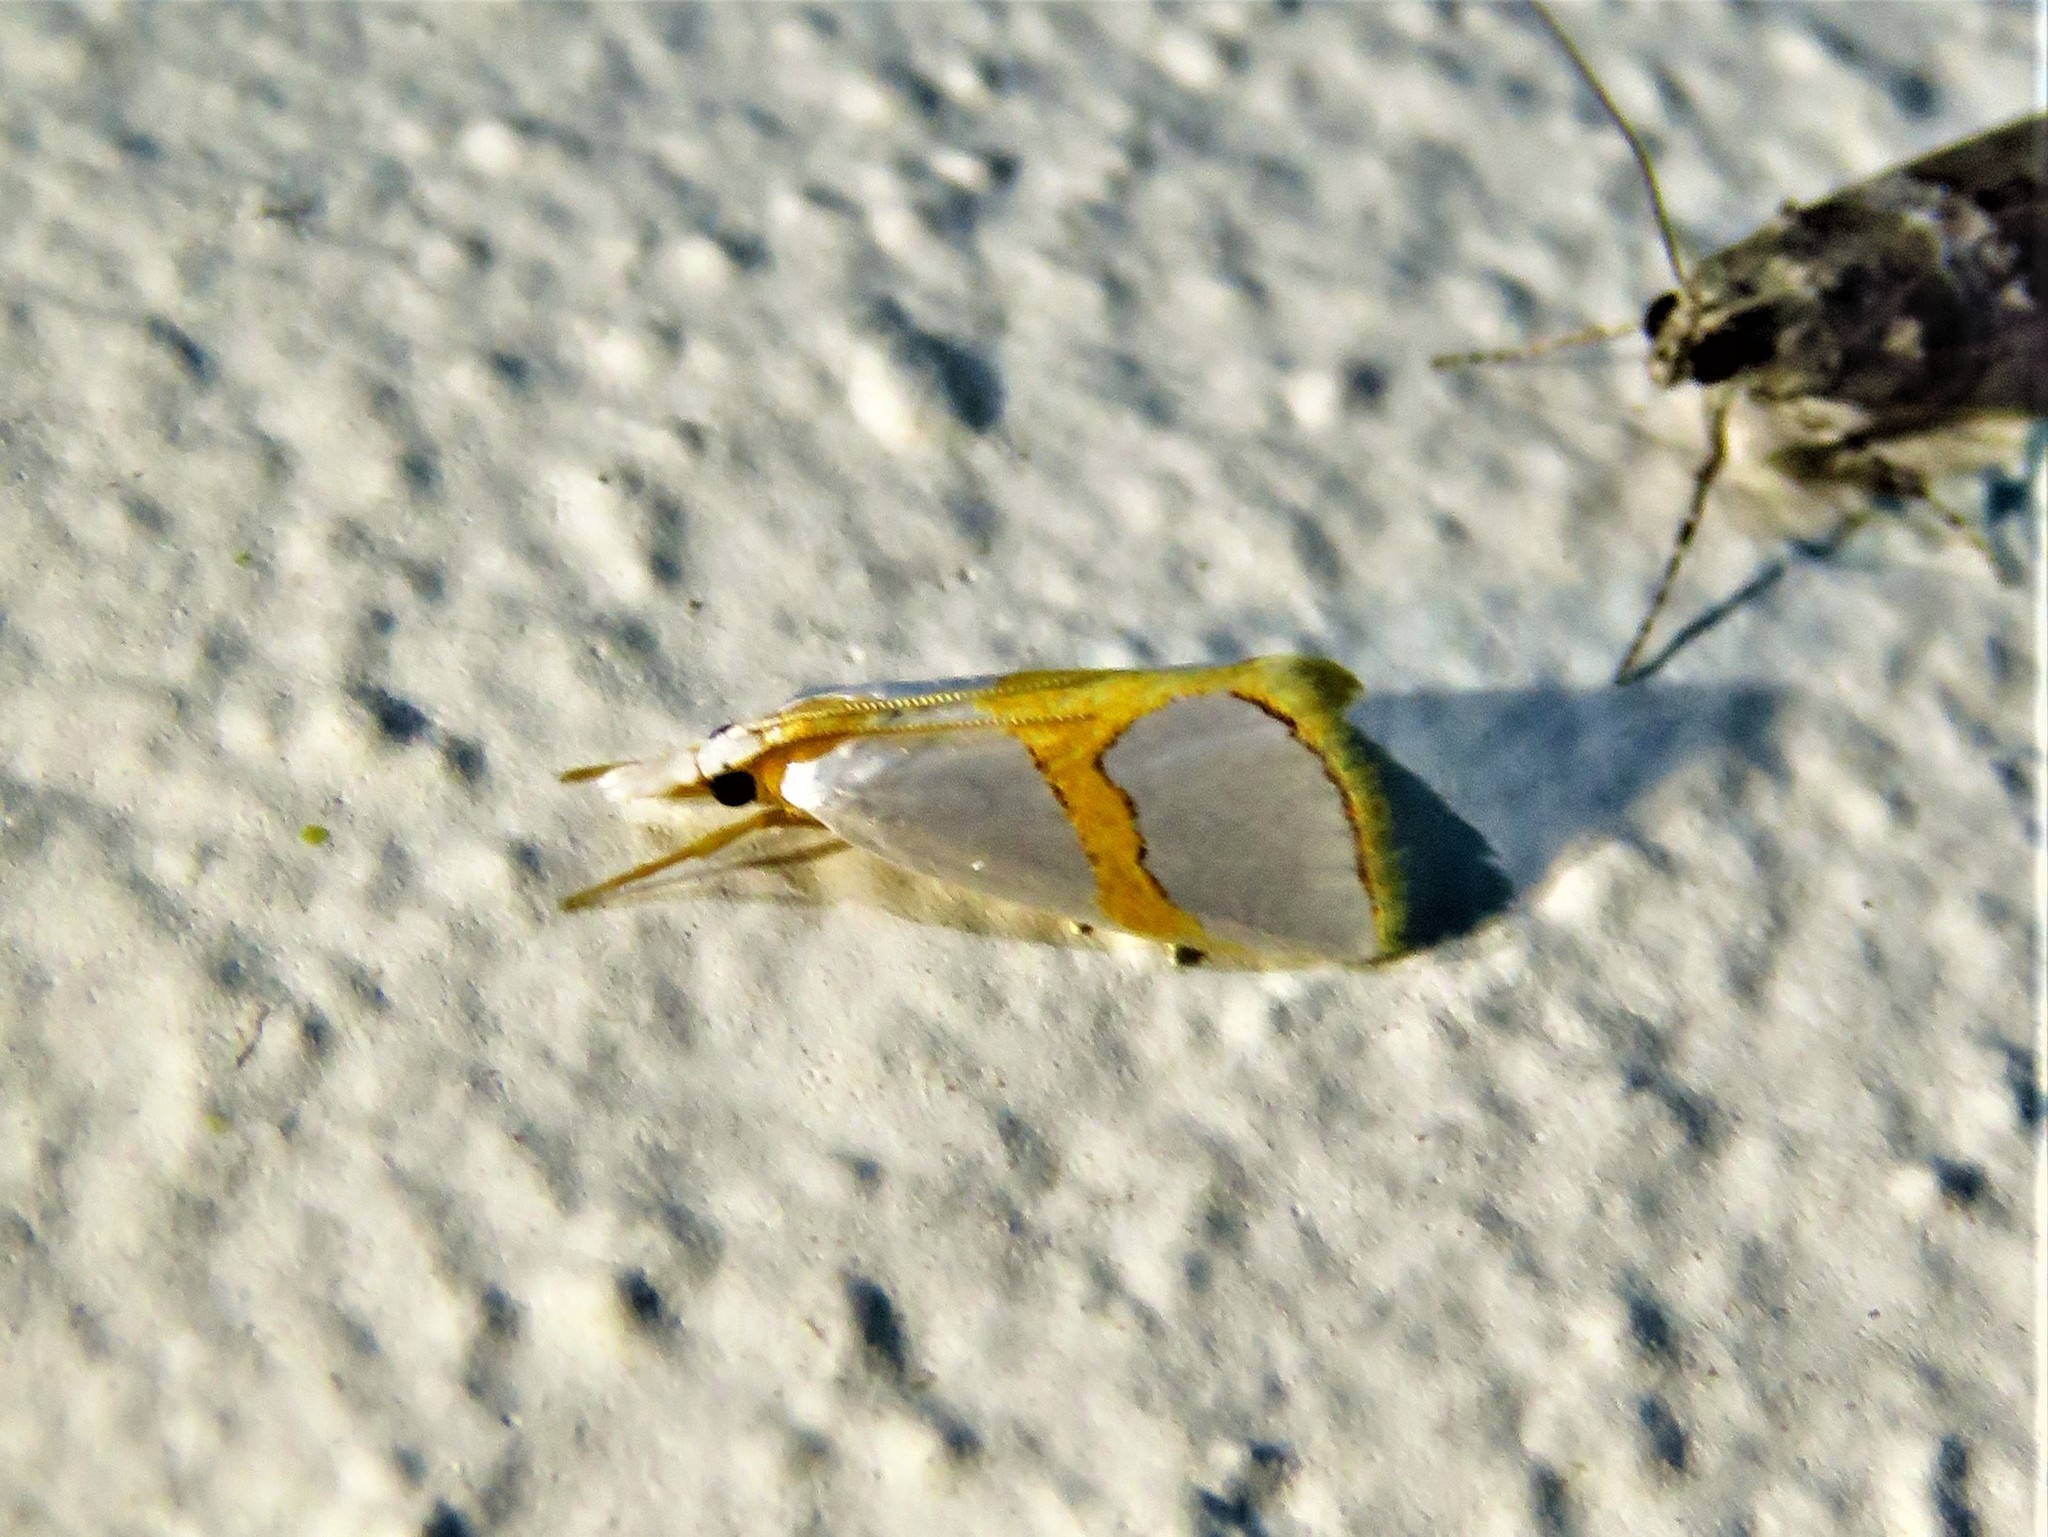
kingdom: Animalia
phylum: Arthropoda
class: Insecta
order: Lepidoptera
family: Crambidae
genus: Argyria
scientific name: Argyria auratella
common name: Curve-lined argyria moth
